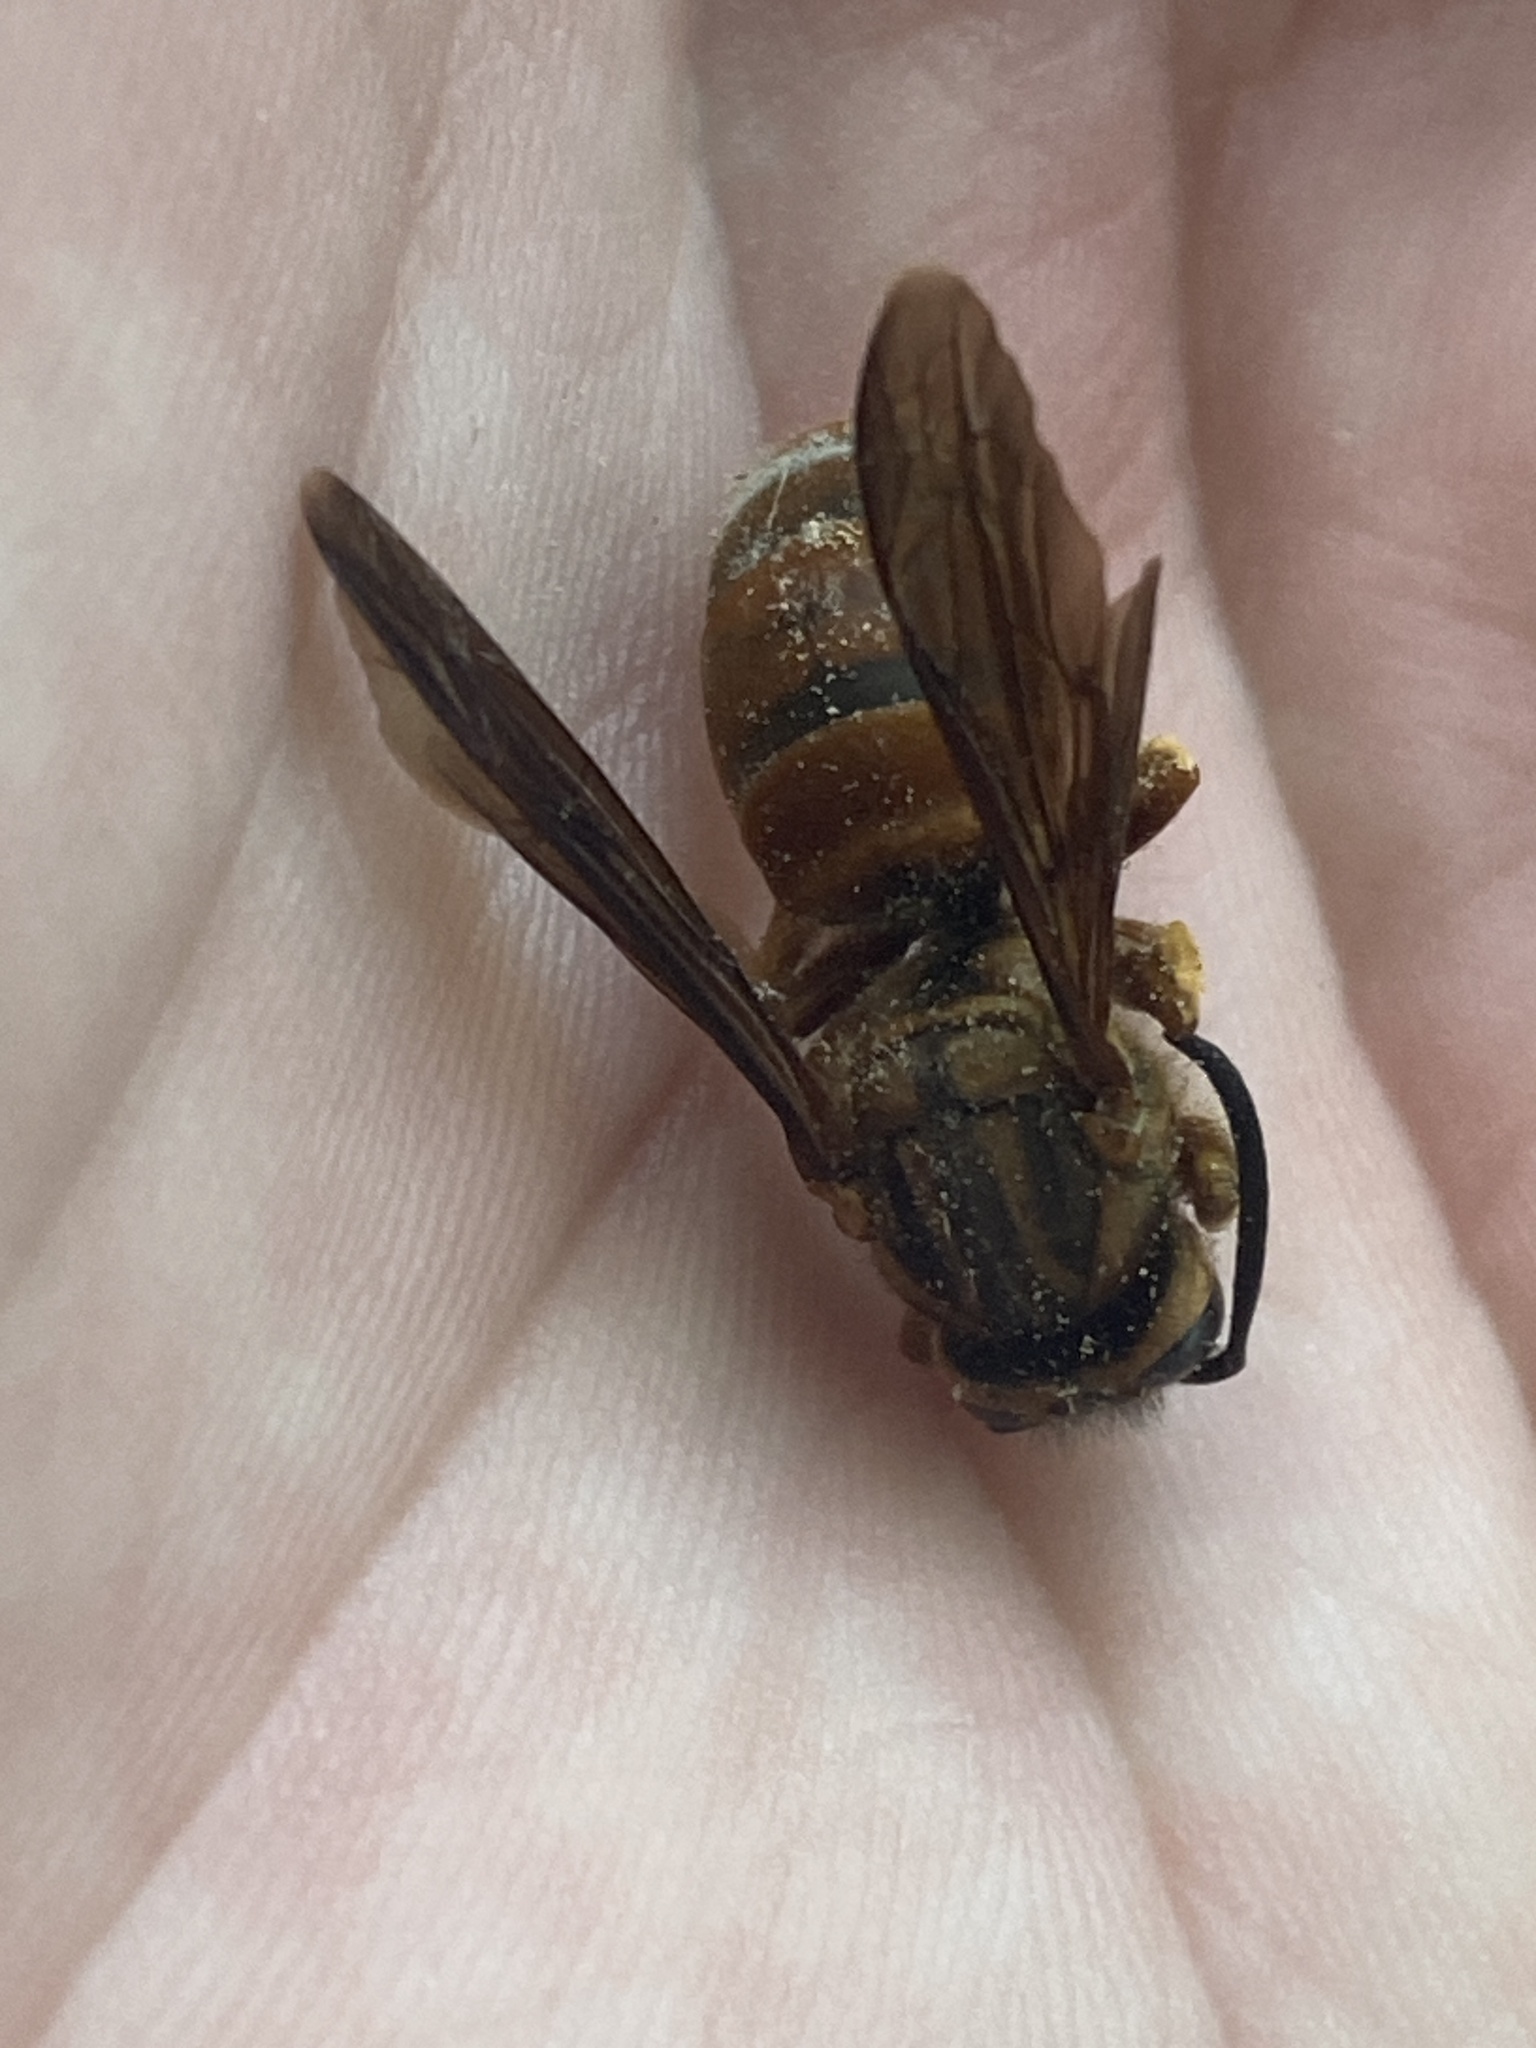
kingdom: Animalia
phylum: Arthropoda
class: Insecta
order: Hymenoptera
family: Vespidae
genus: Vespula
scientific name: Vespula squamosa
